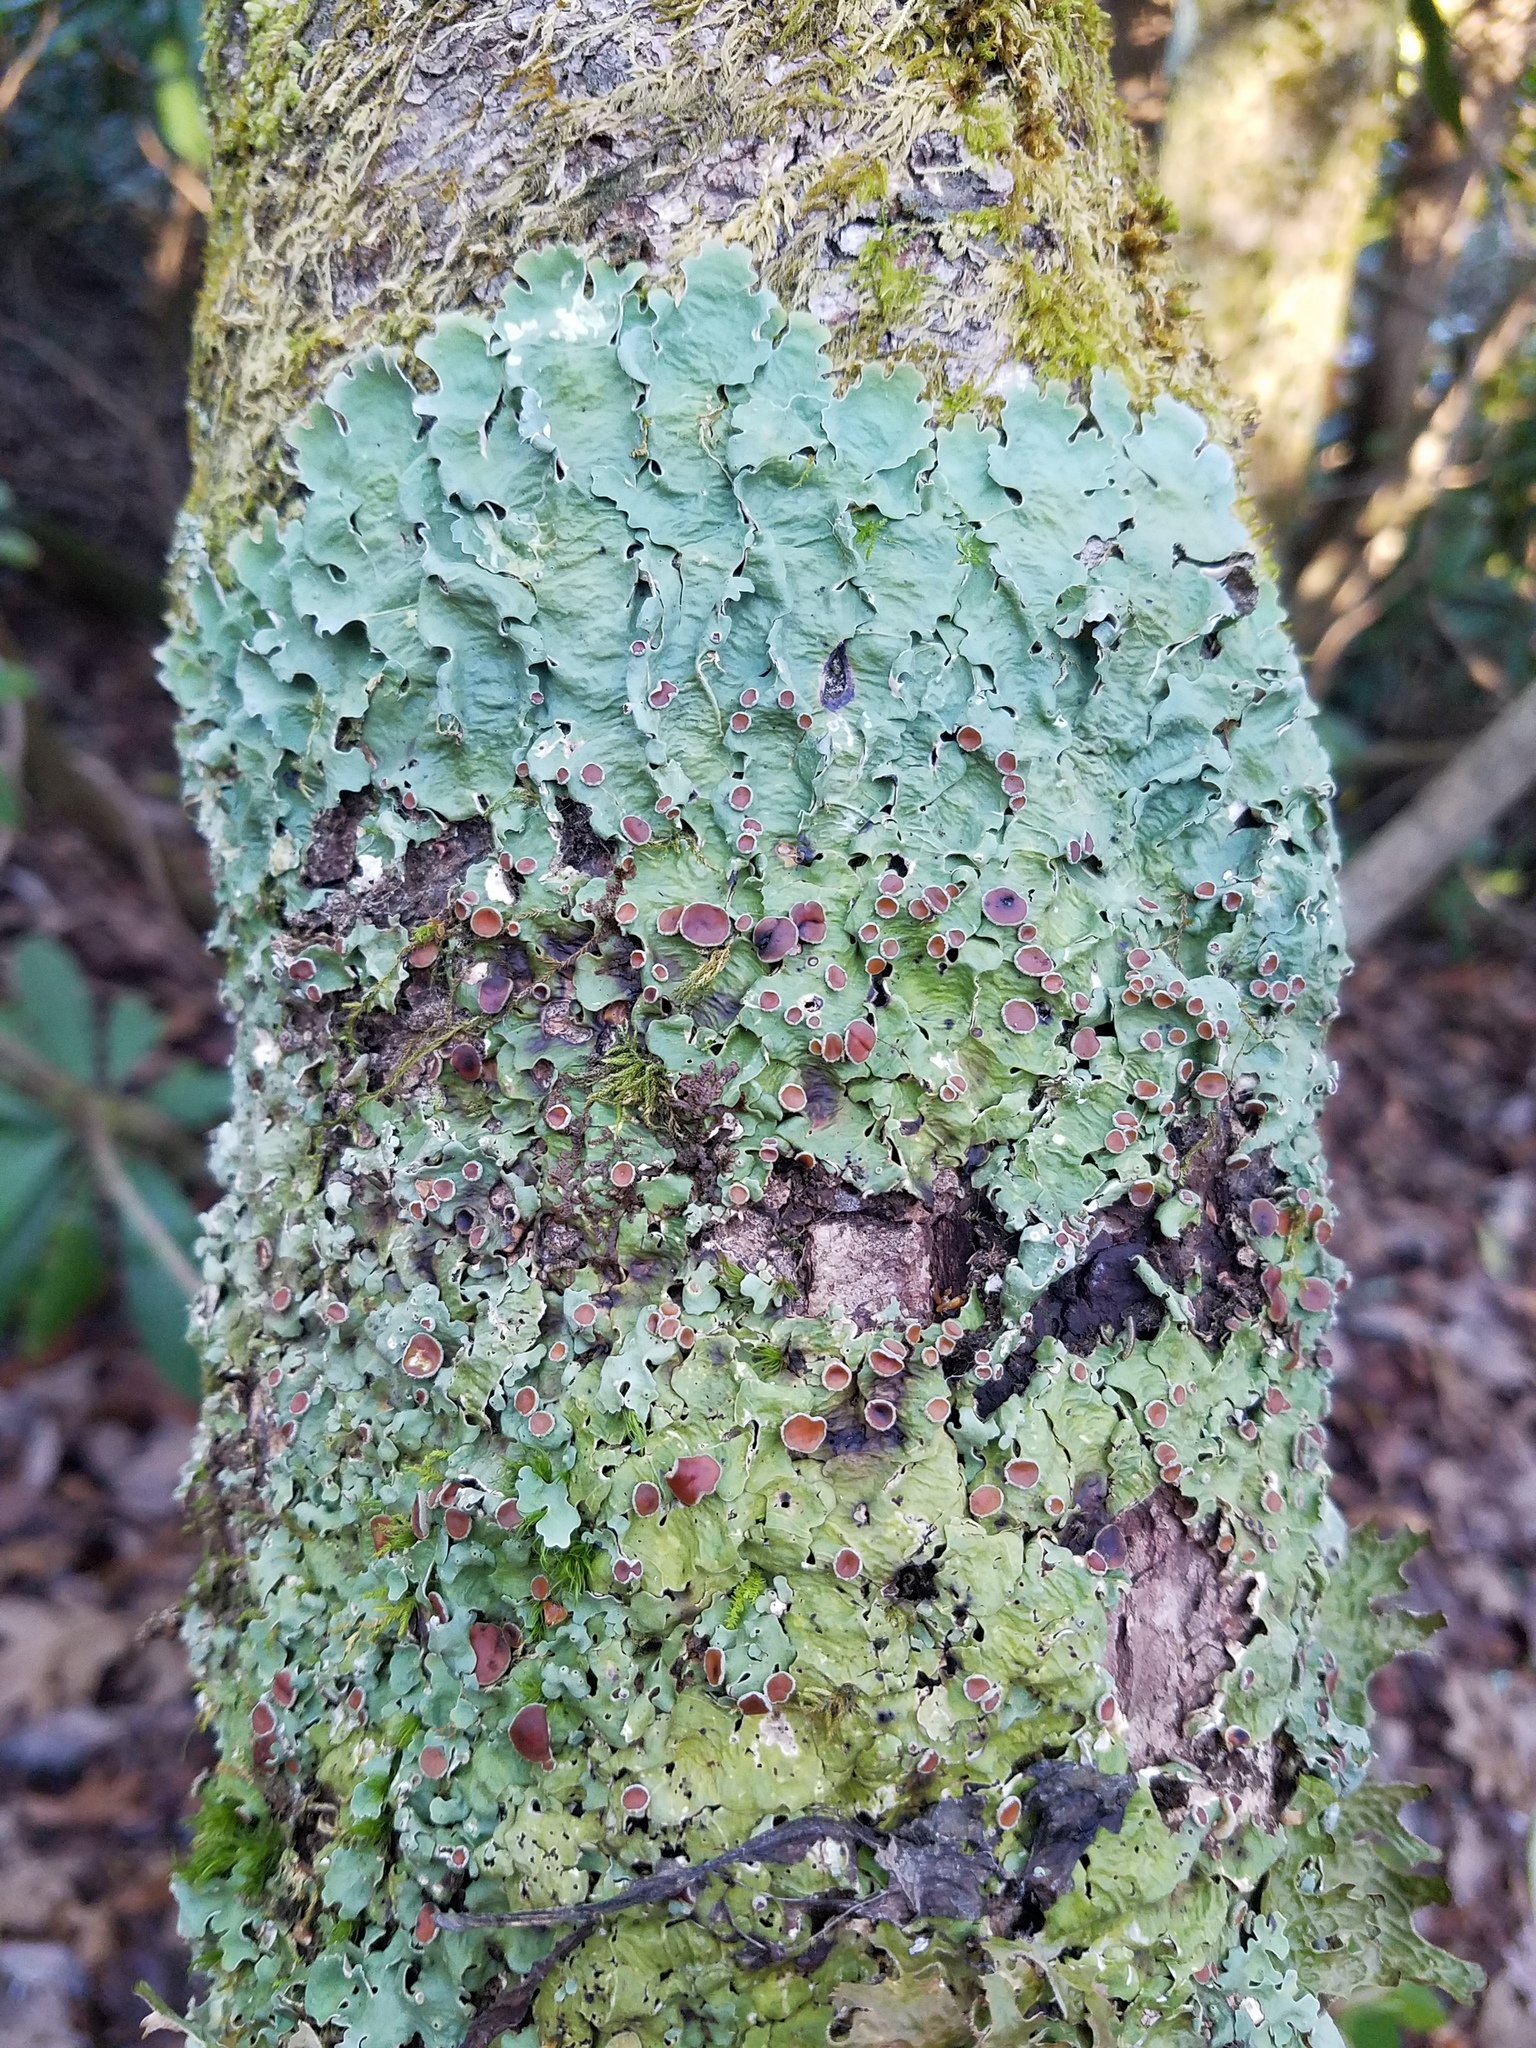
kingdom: Fungi
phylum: Ascomycota
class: Lecanoromycetes
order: Peltigerales
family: Lobariaceae
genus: Ricasolia
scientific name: Ricasolia quercizans
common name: Smooth lungwort
